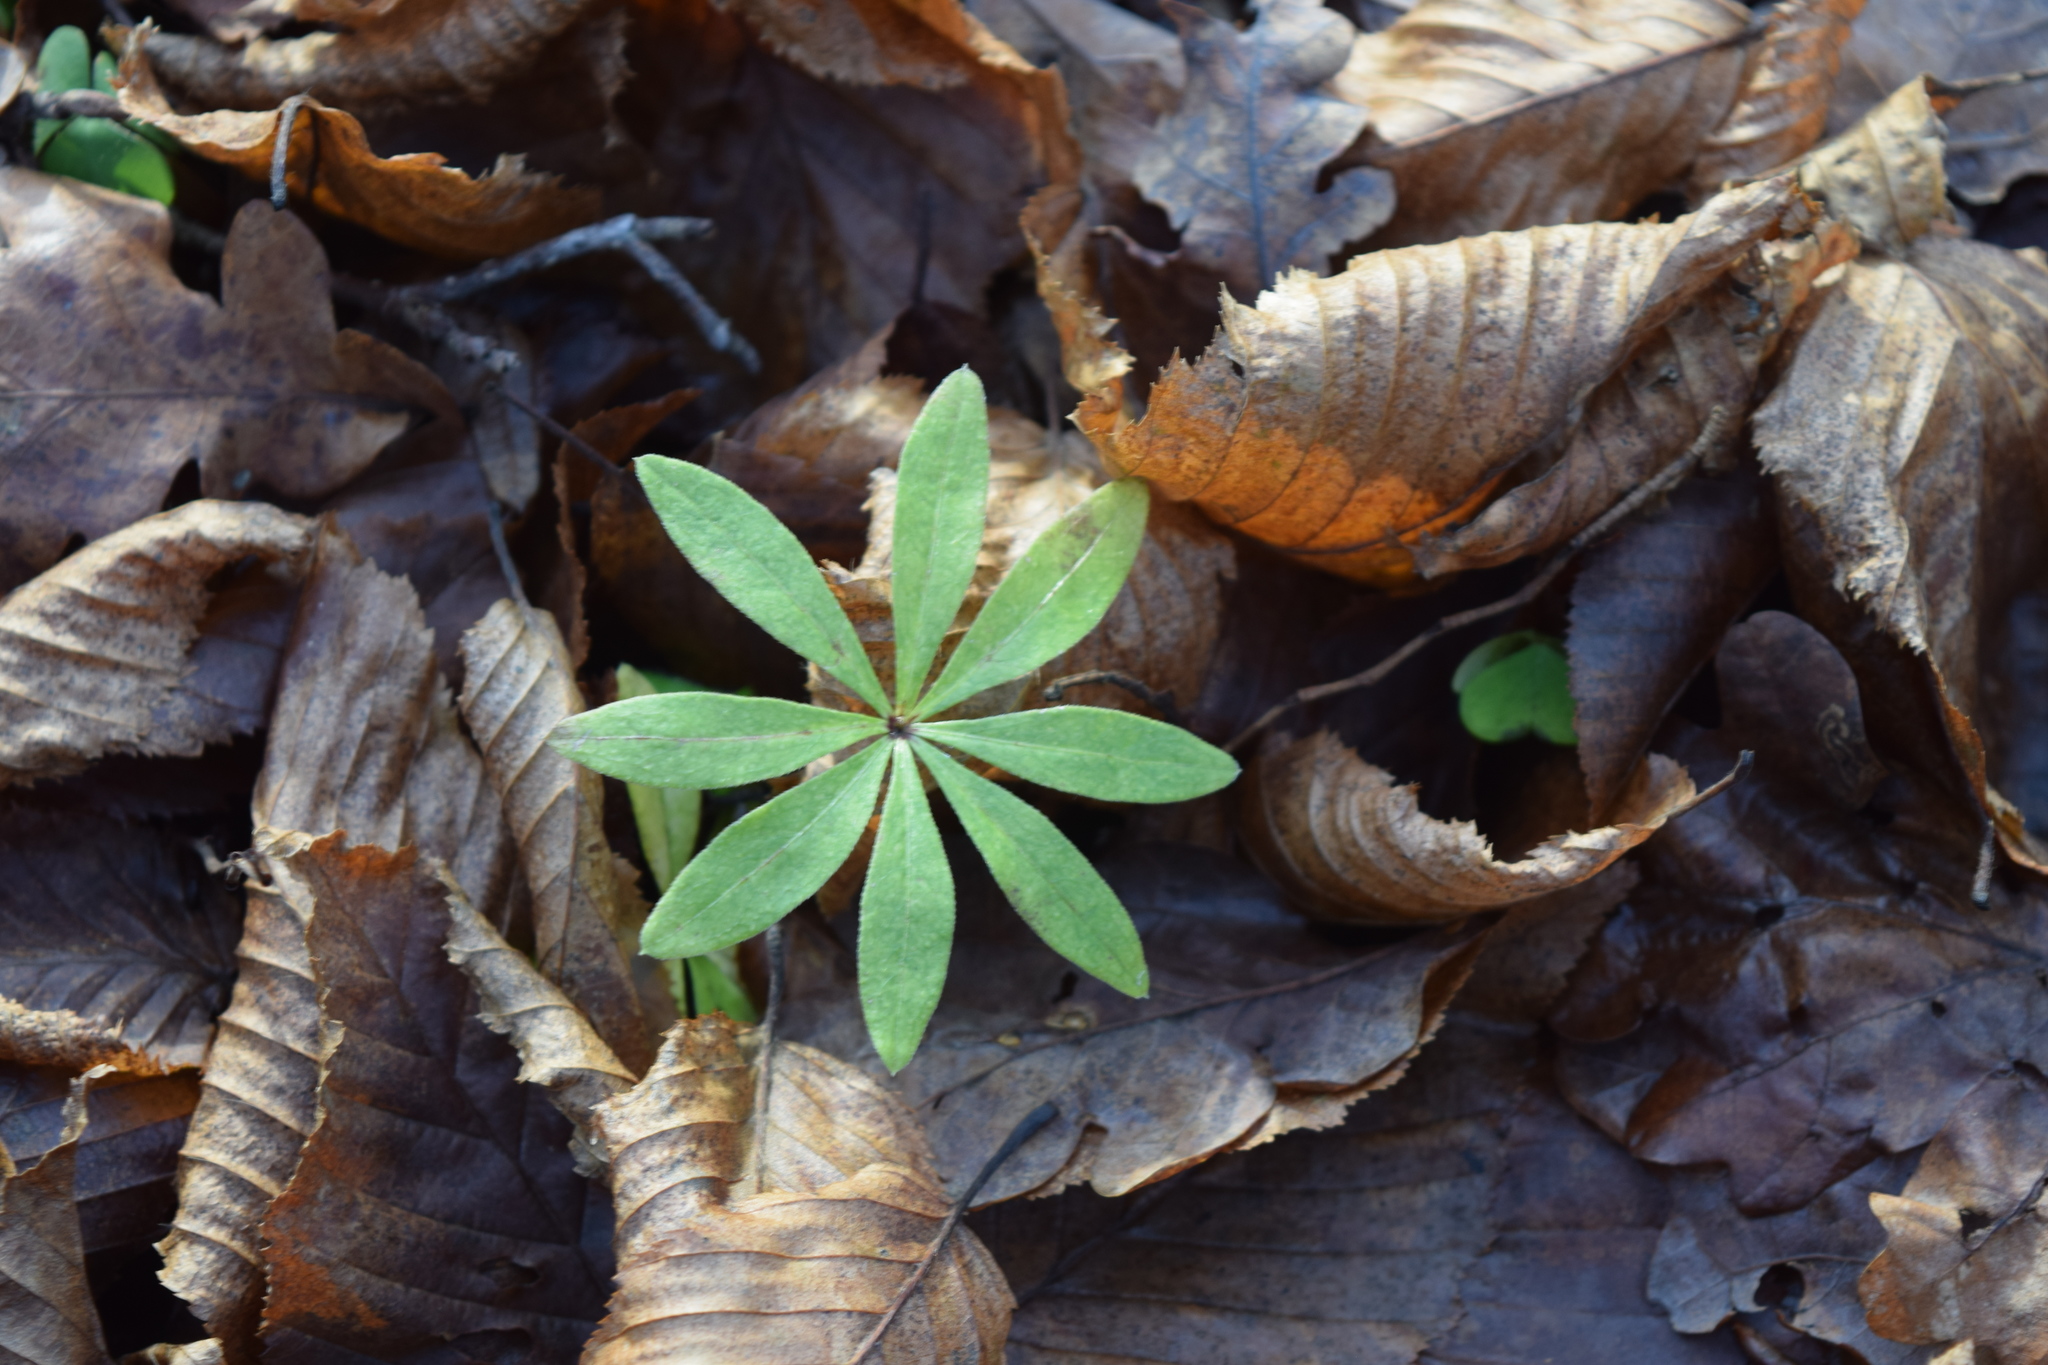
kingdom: Plantae
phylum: Tracheophyta
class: Magnoliopsida
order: Gentianales
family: Rubiaceae
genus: Galium
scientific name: Galium odoratum
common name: Sweet woodruff
